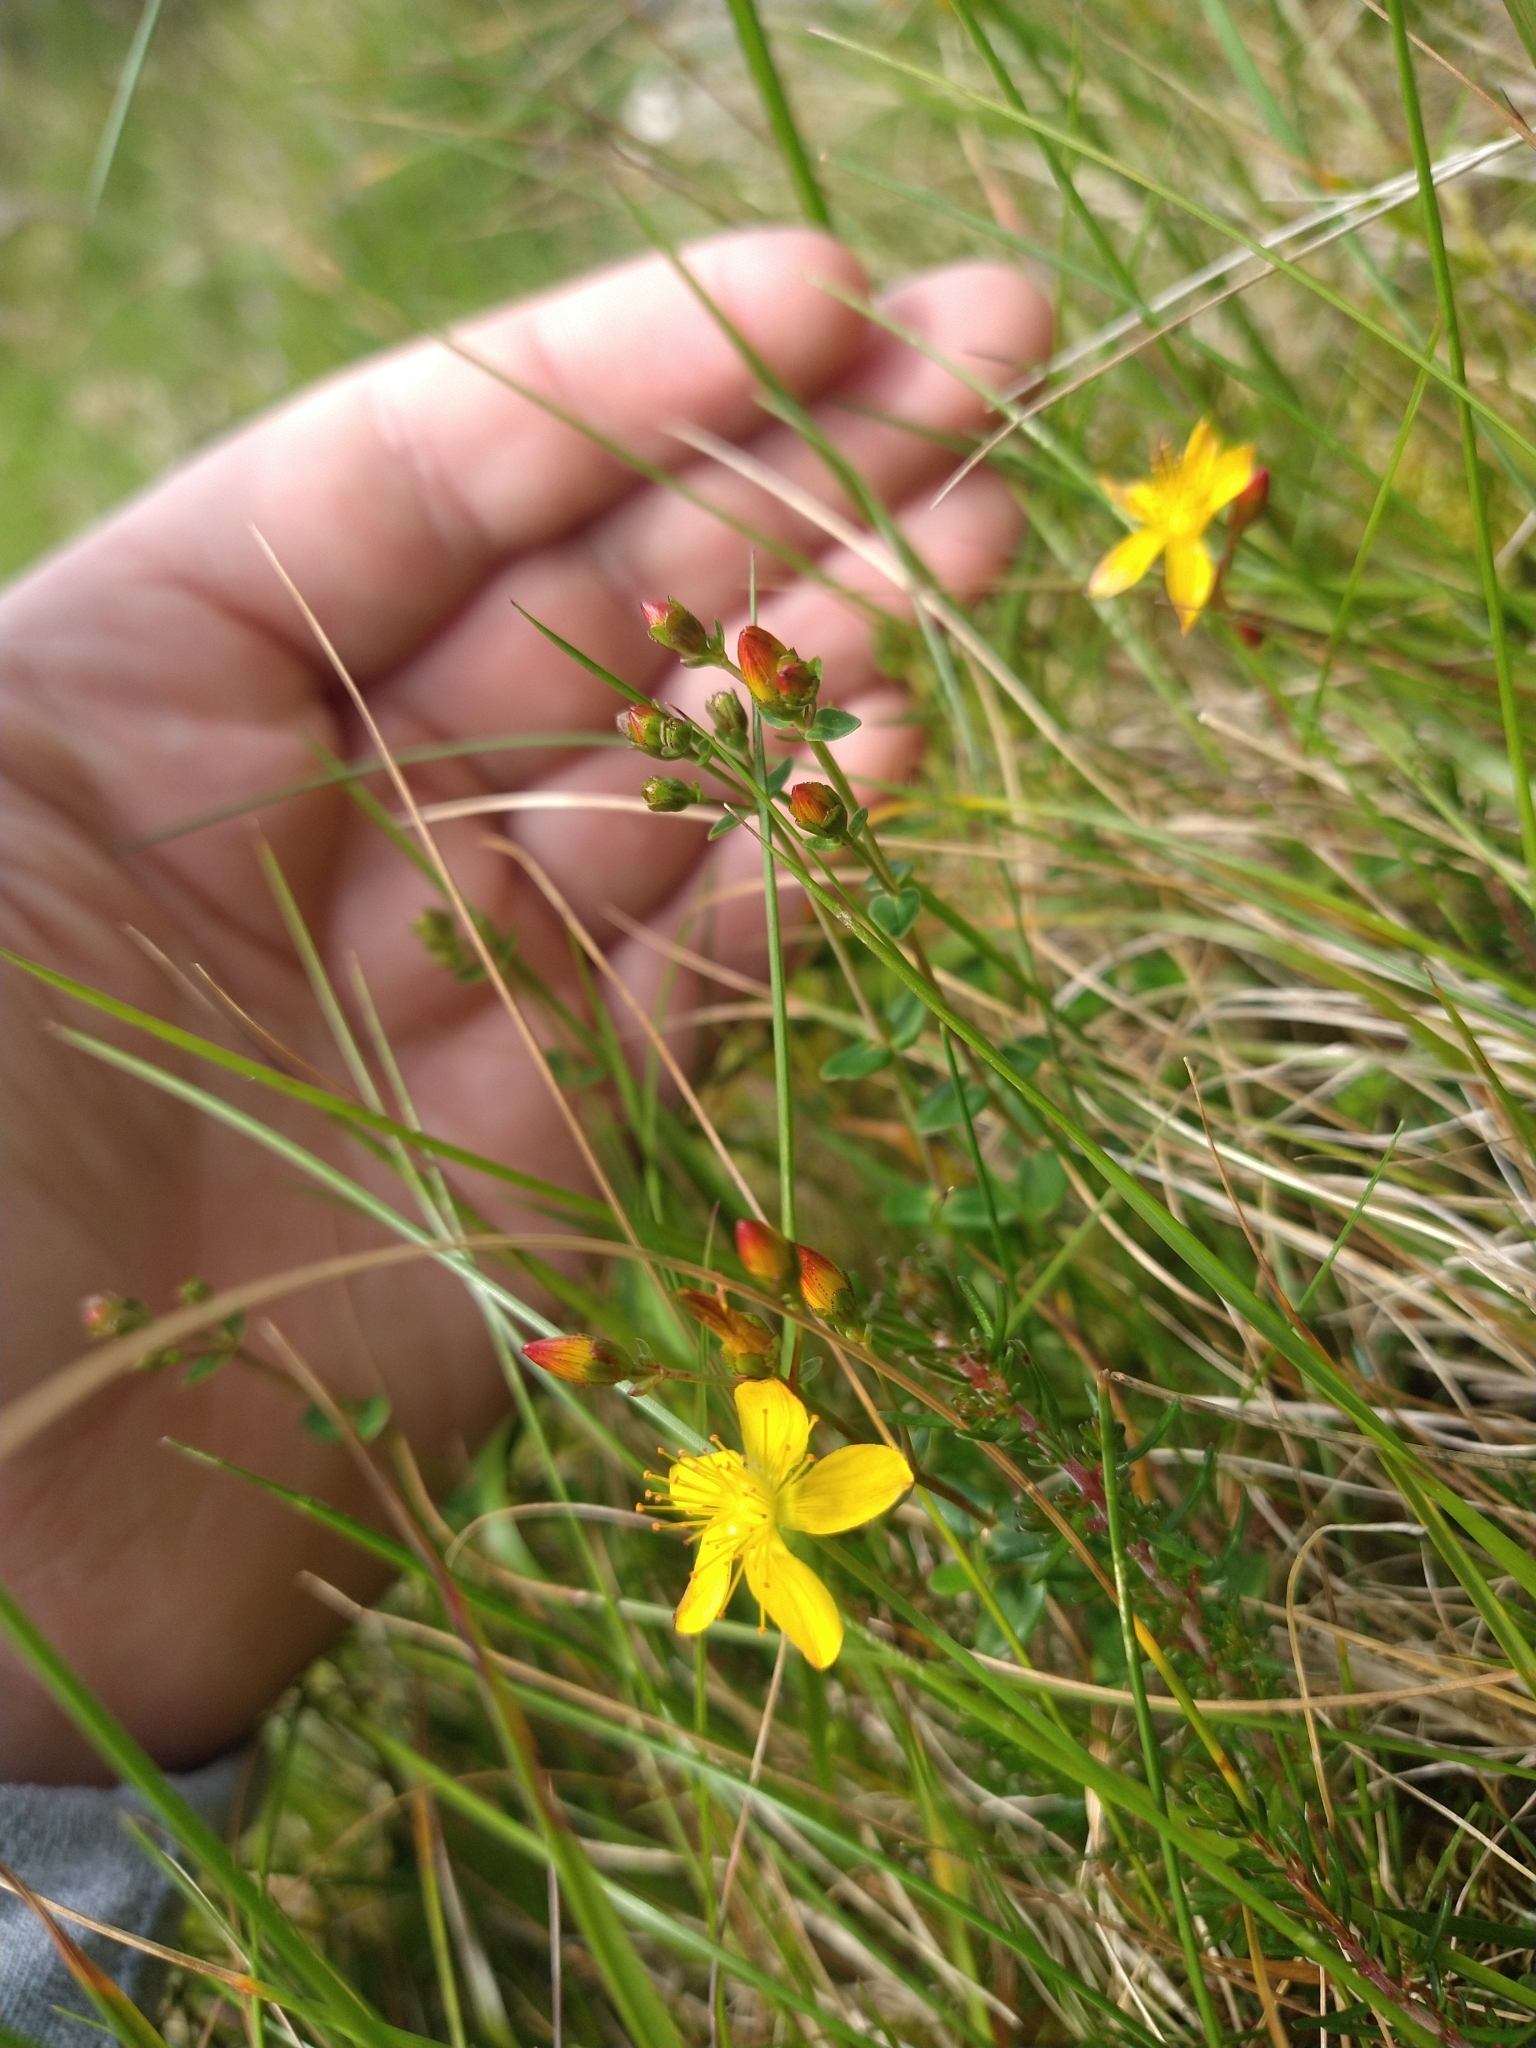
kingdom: Plantae
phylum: Tracheophyta
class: Magnoliopsida
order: Malpighiales
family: Hypericaceae
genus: Hypericum
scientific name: Hypericum pulchrum
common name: Slender st. john's-wort
